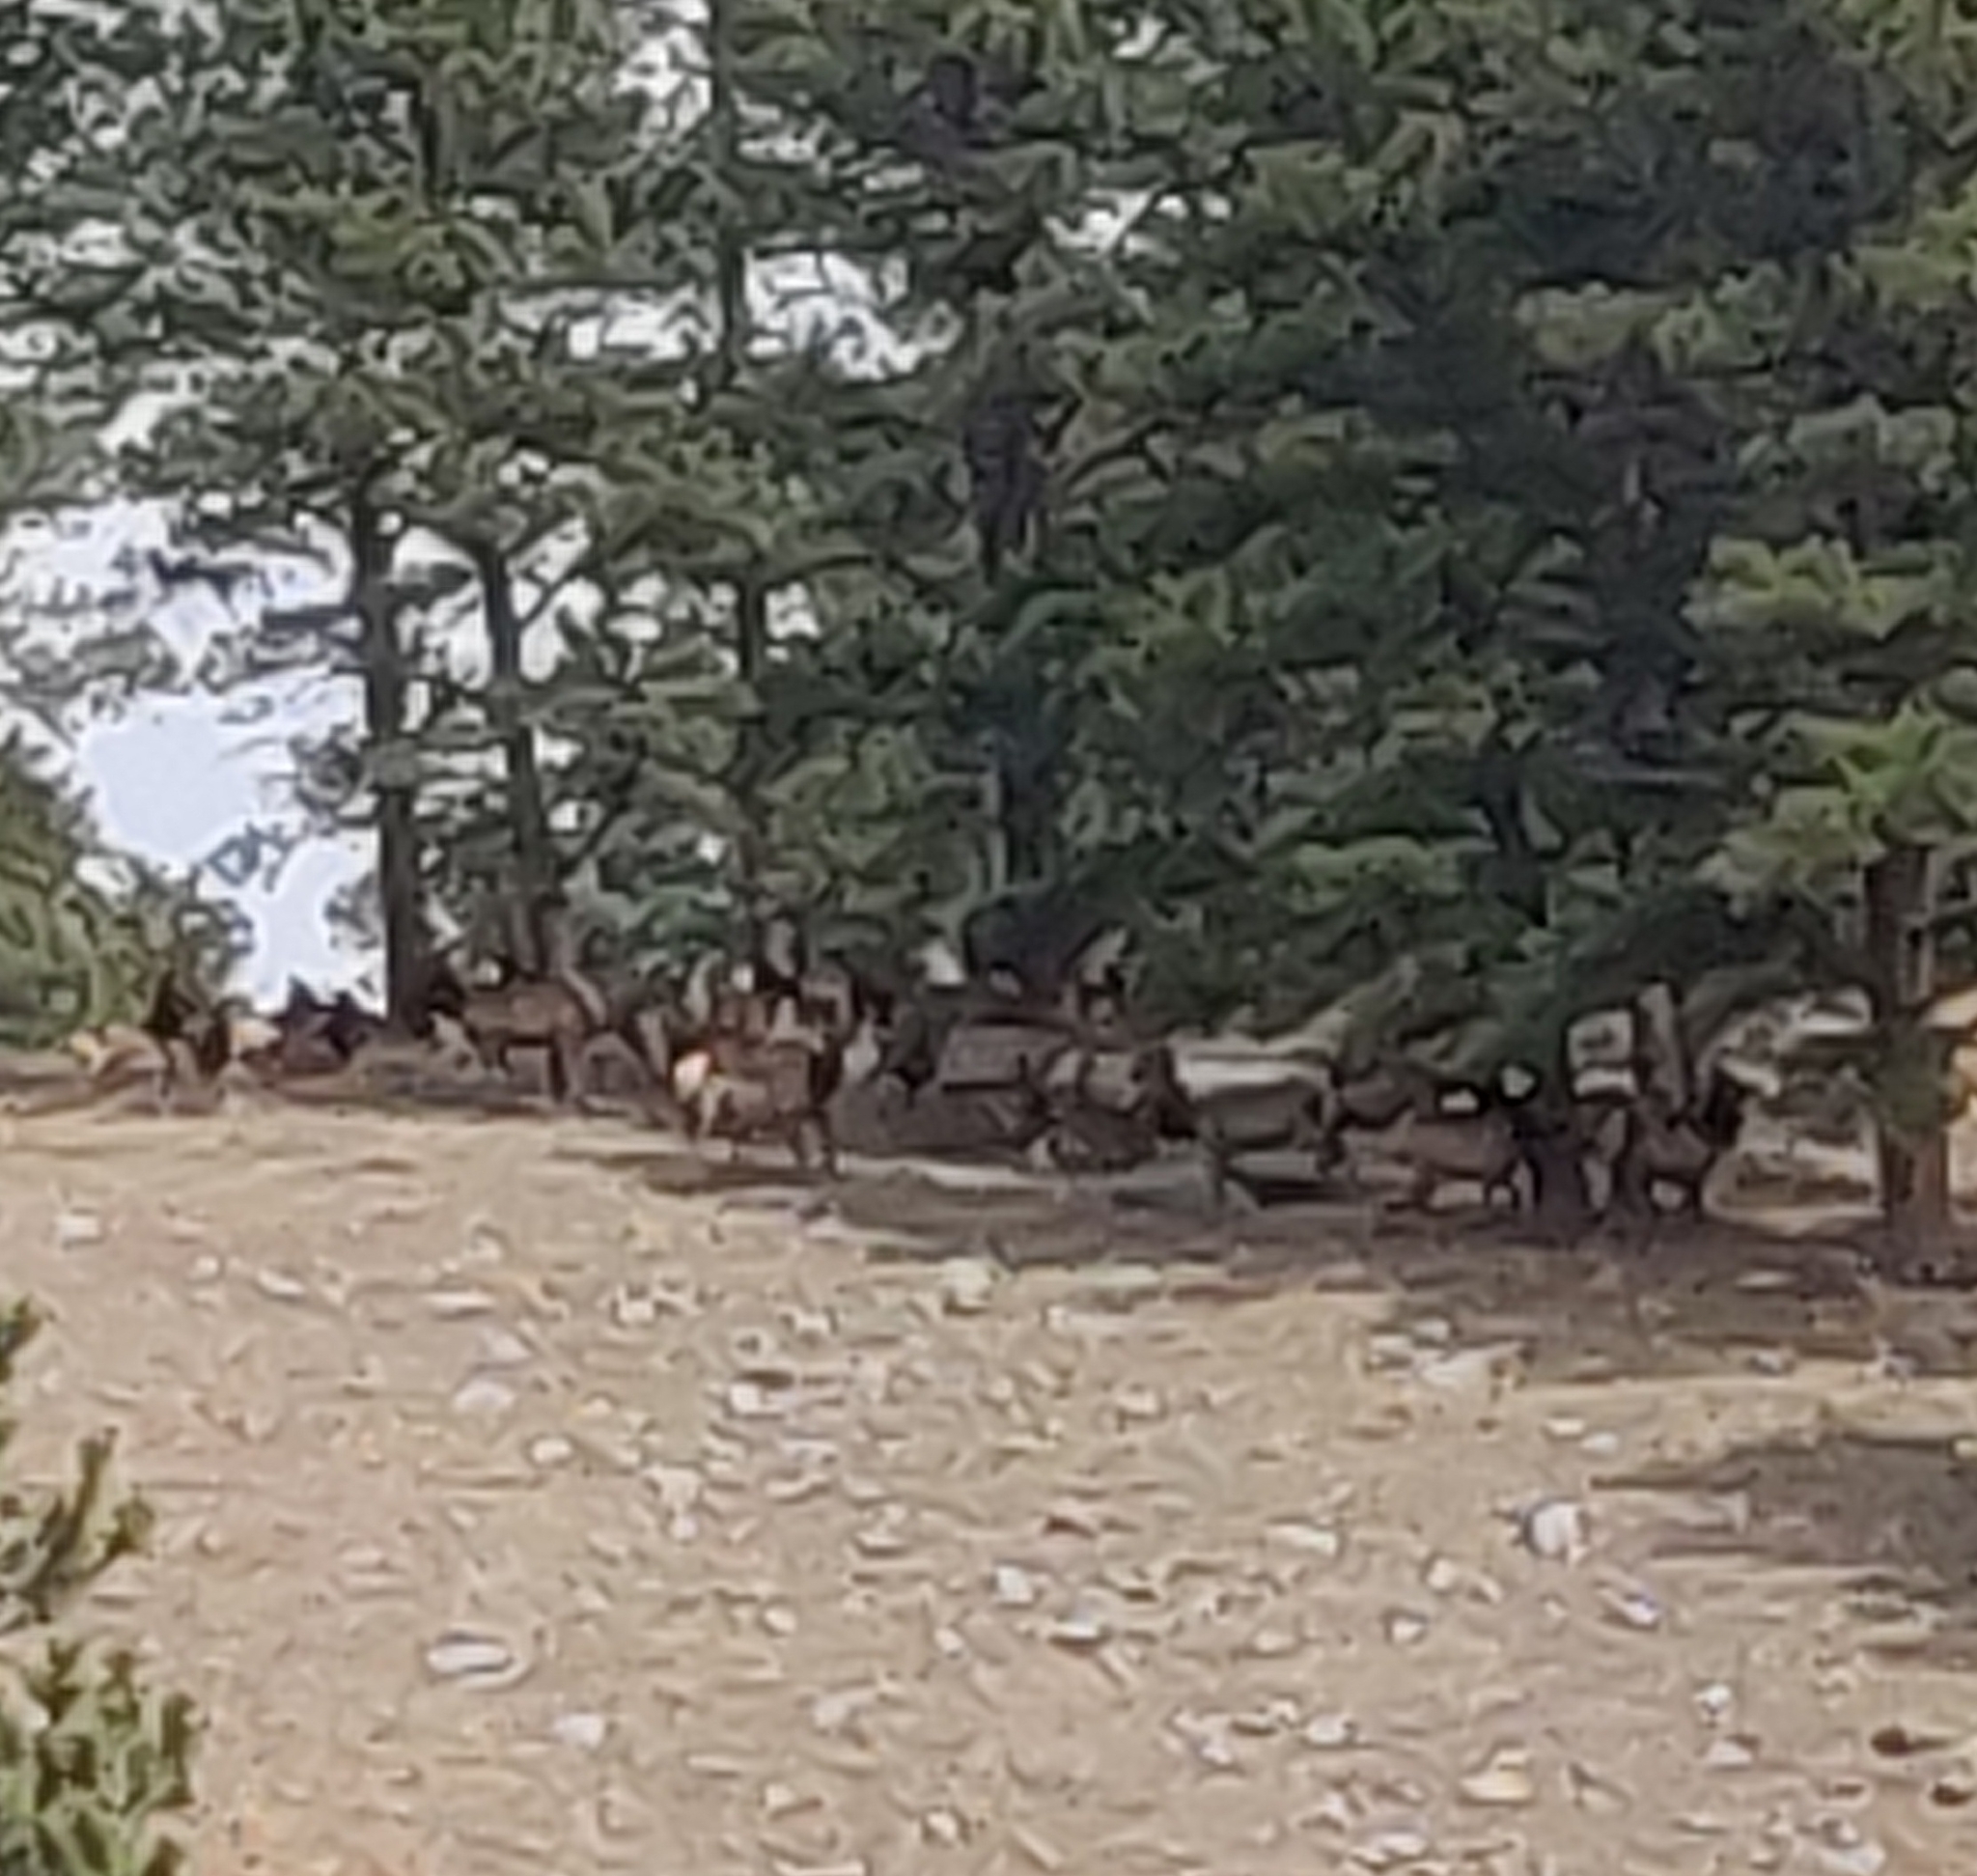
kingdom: Animalia
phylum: Chordata
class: Mammalia
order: Artiodactyla
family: Cervidae
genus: Cervus
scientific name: Cervus elaphus
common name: Red deer
